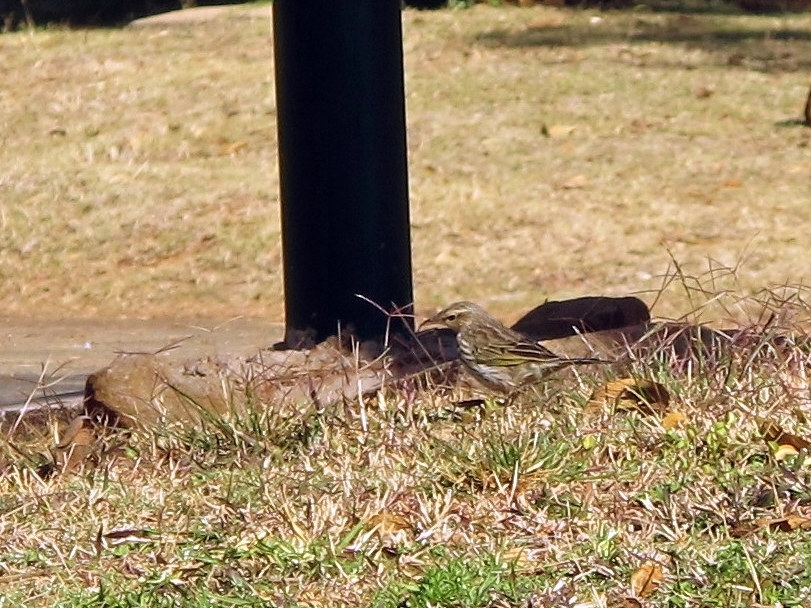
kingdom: Animalia
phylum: Chordata
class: Aves
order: Passeriformes
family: Motacillidae
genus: Anthus
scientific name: Anthus lineiventris
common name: Striped pipit
